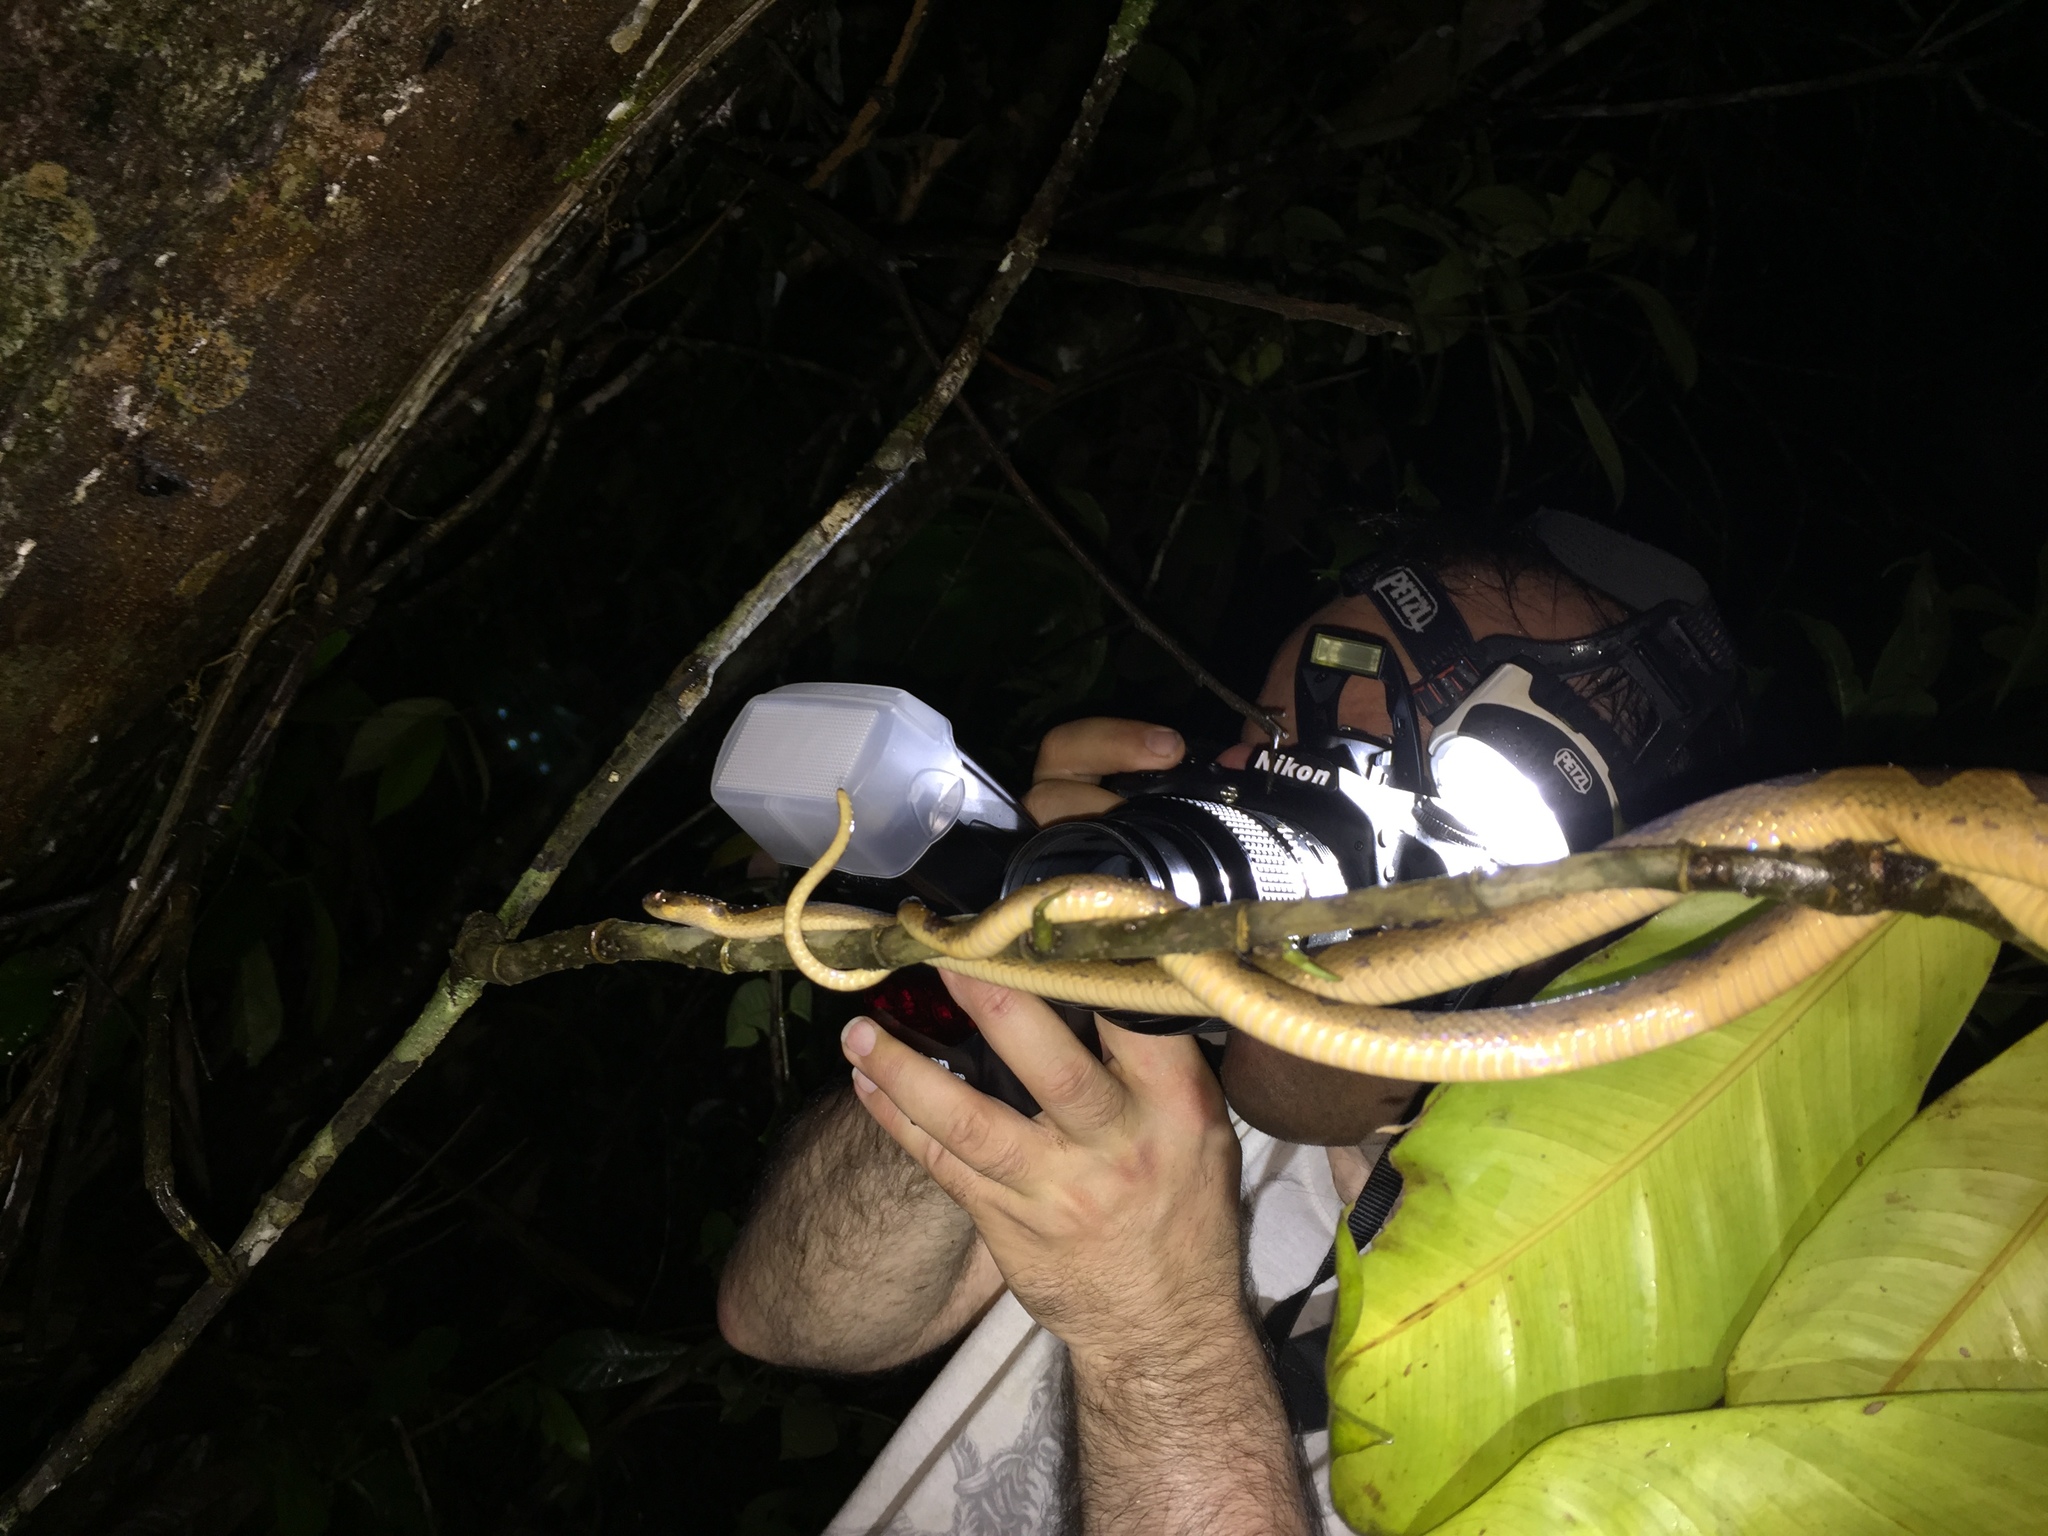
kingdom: Animalia
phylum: Chordata
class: Squamata
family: Colubridae
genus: Leptodeira
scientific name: Leptodeira annulata
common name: Banded cat-eyed snake
